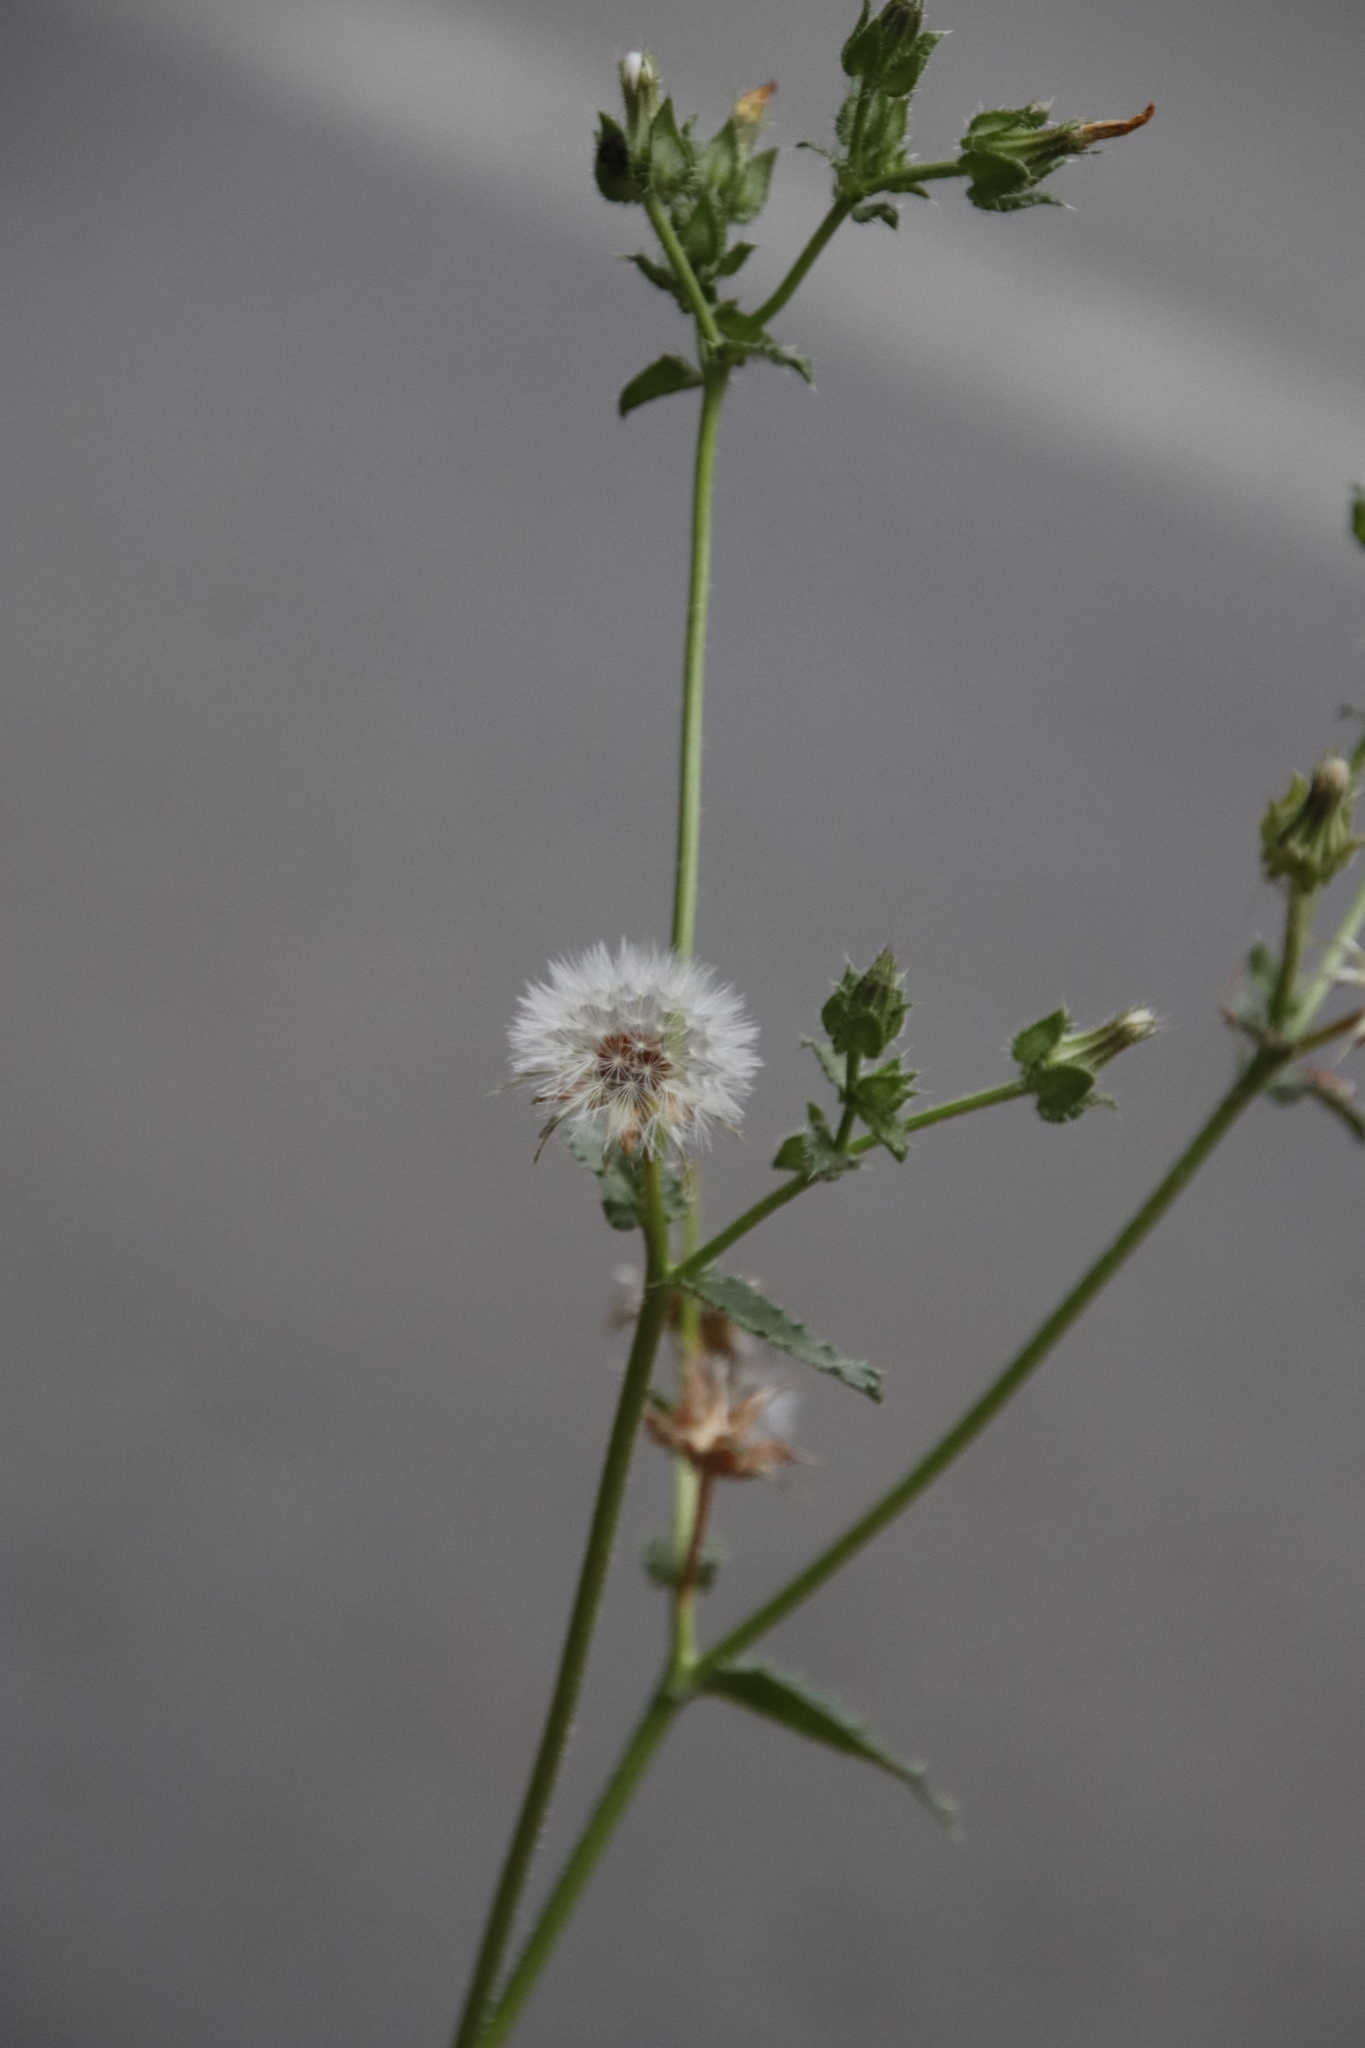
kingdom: Plantae
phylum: Tracheophyta
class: Magnoliopsida
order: Asterales
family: Asteraceae
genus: Helminthotheca
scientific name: Helminthotheca echioides
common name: Ox-tongue
